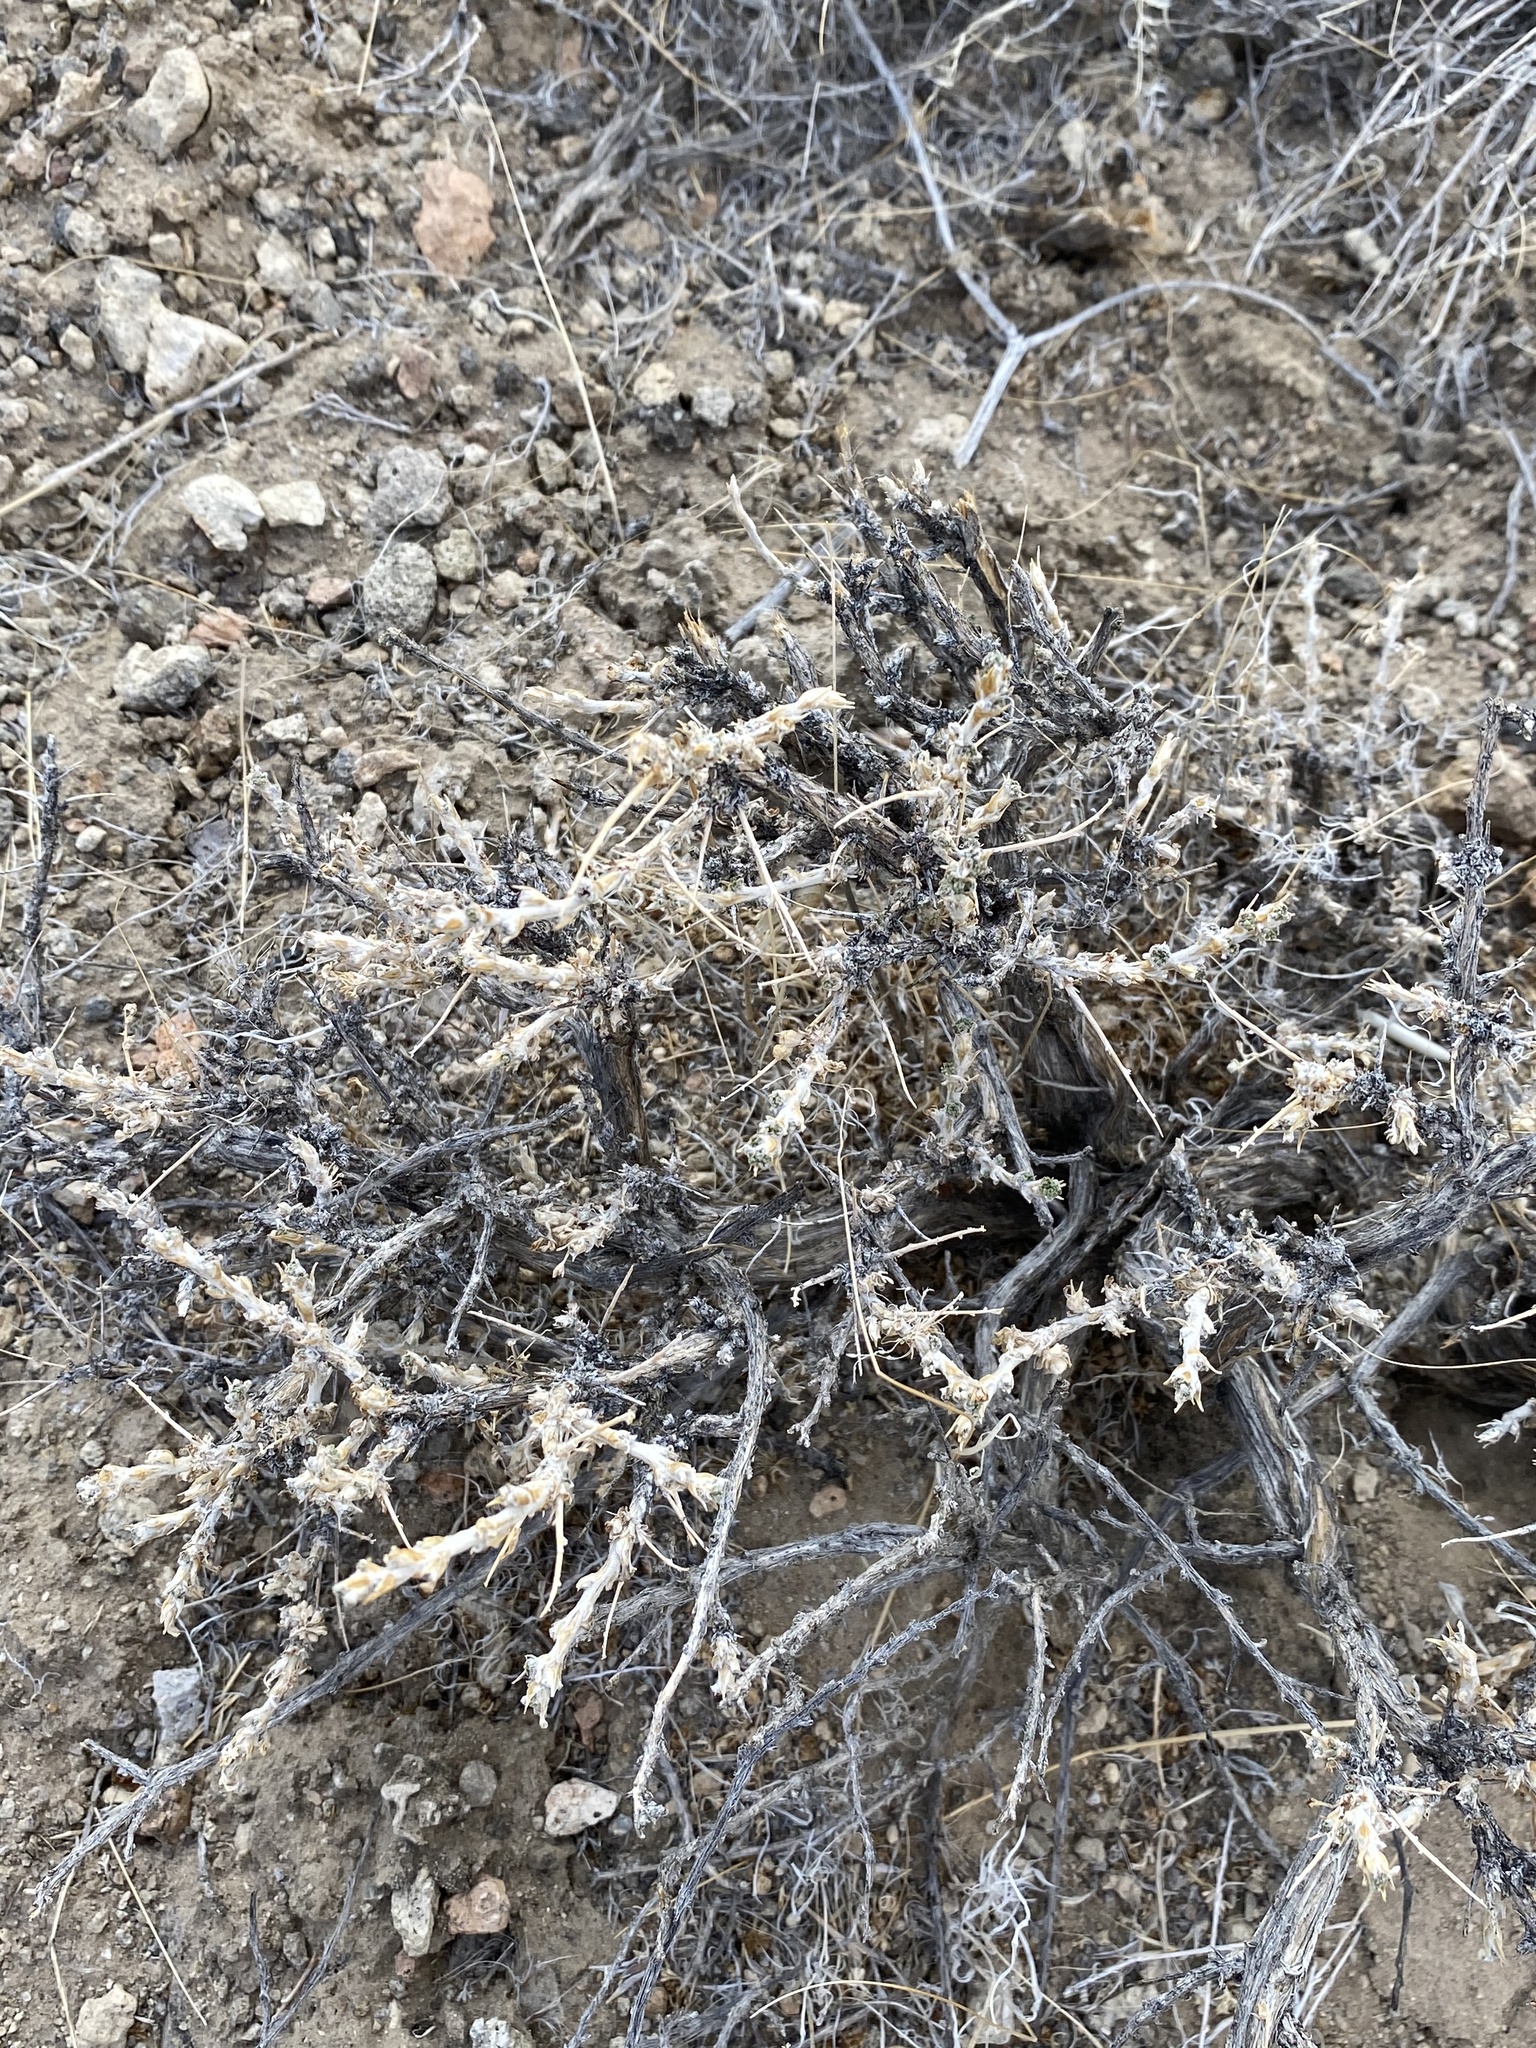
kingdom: Plantae
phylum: Tracheophyta
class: Magnoliopsida
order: Asterales
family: Asteraceae
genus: Artemisia
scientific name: Artemisia spinescens
